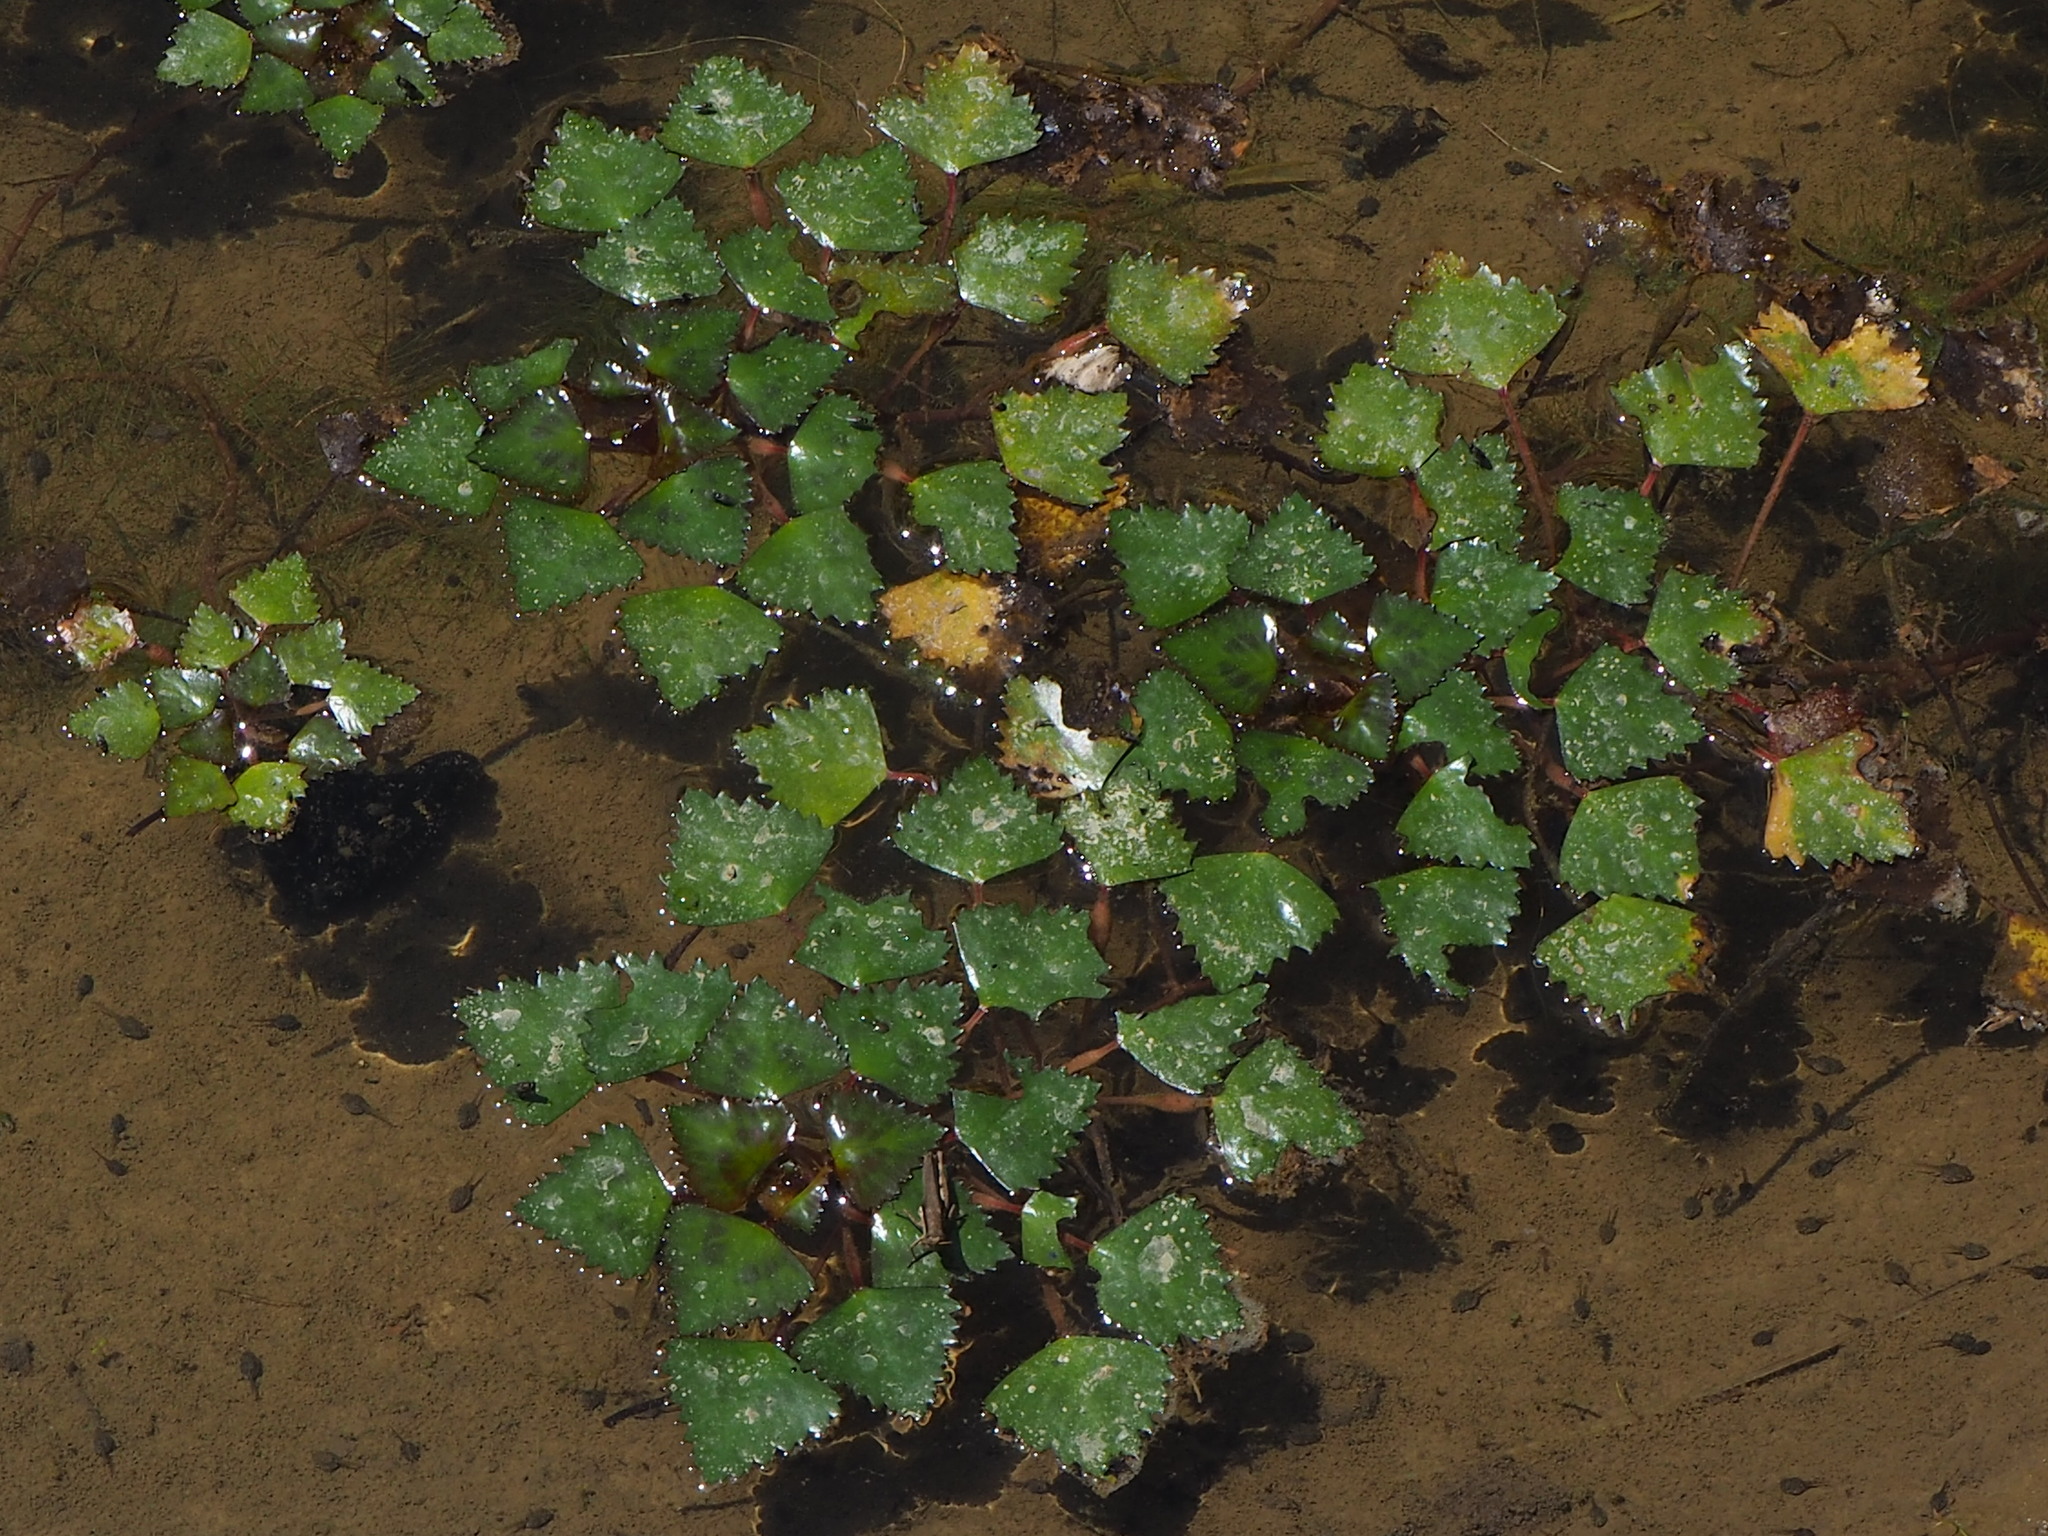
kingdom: Plantae
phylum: Tracheophyta
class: Magnoliopsida
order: Myrtales
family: Lythraceae
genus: Trapa
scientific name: Trapa natans
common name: Water chestnut
